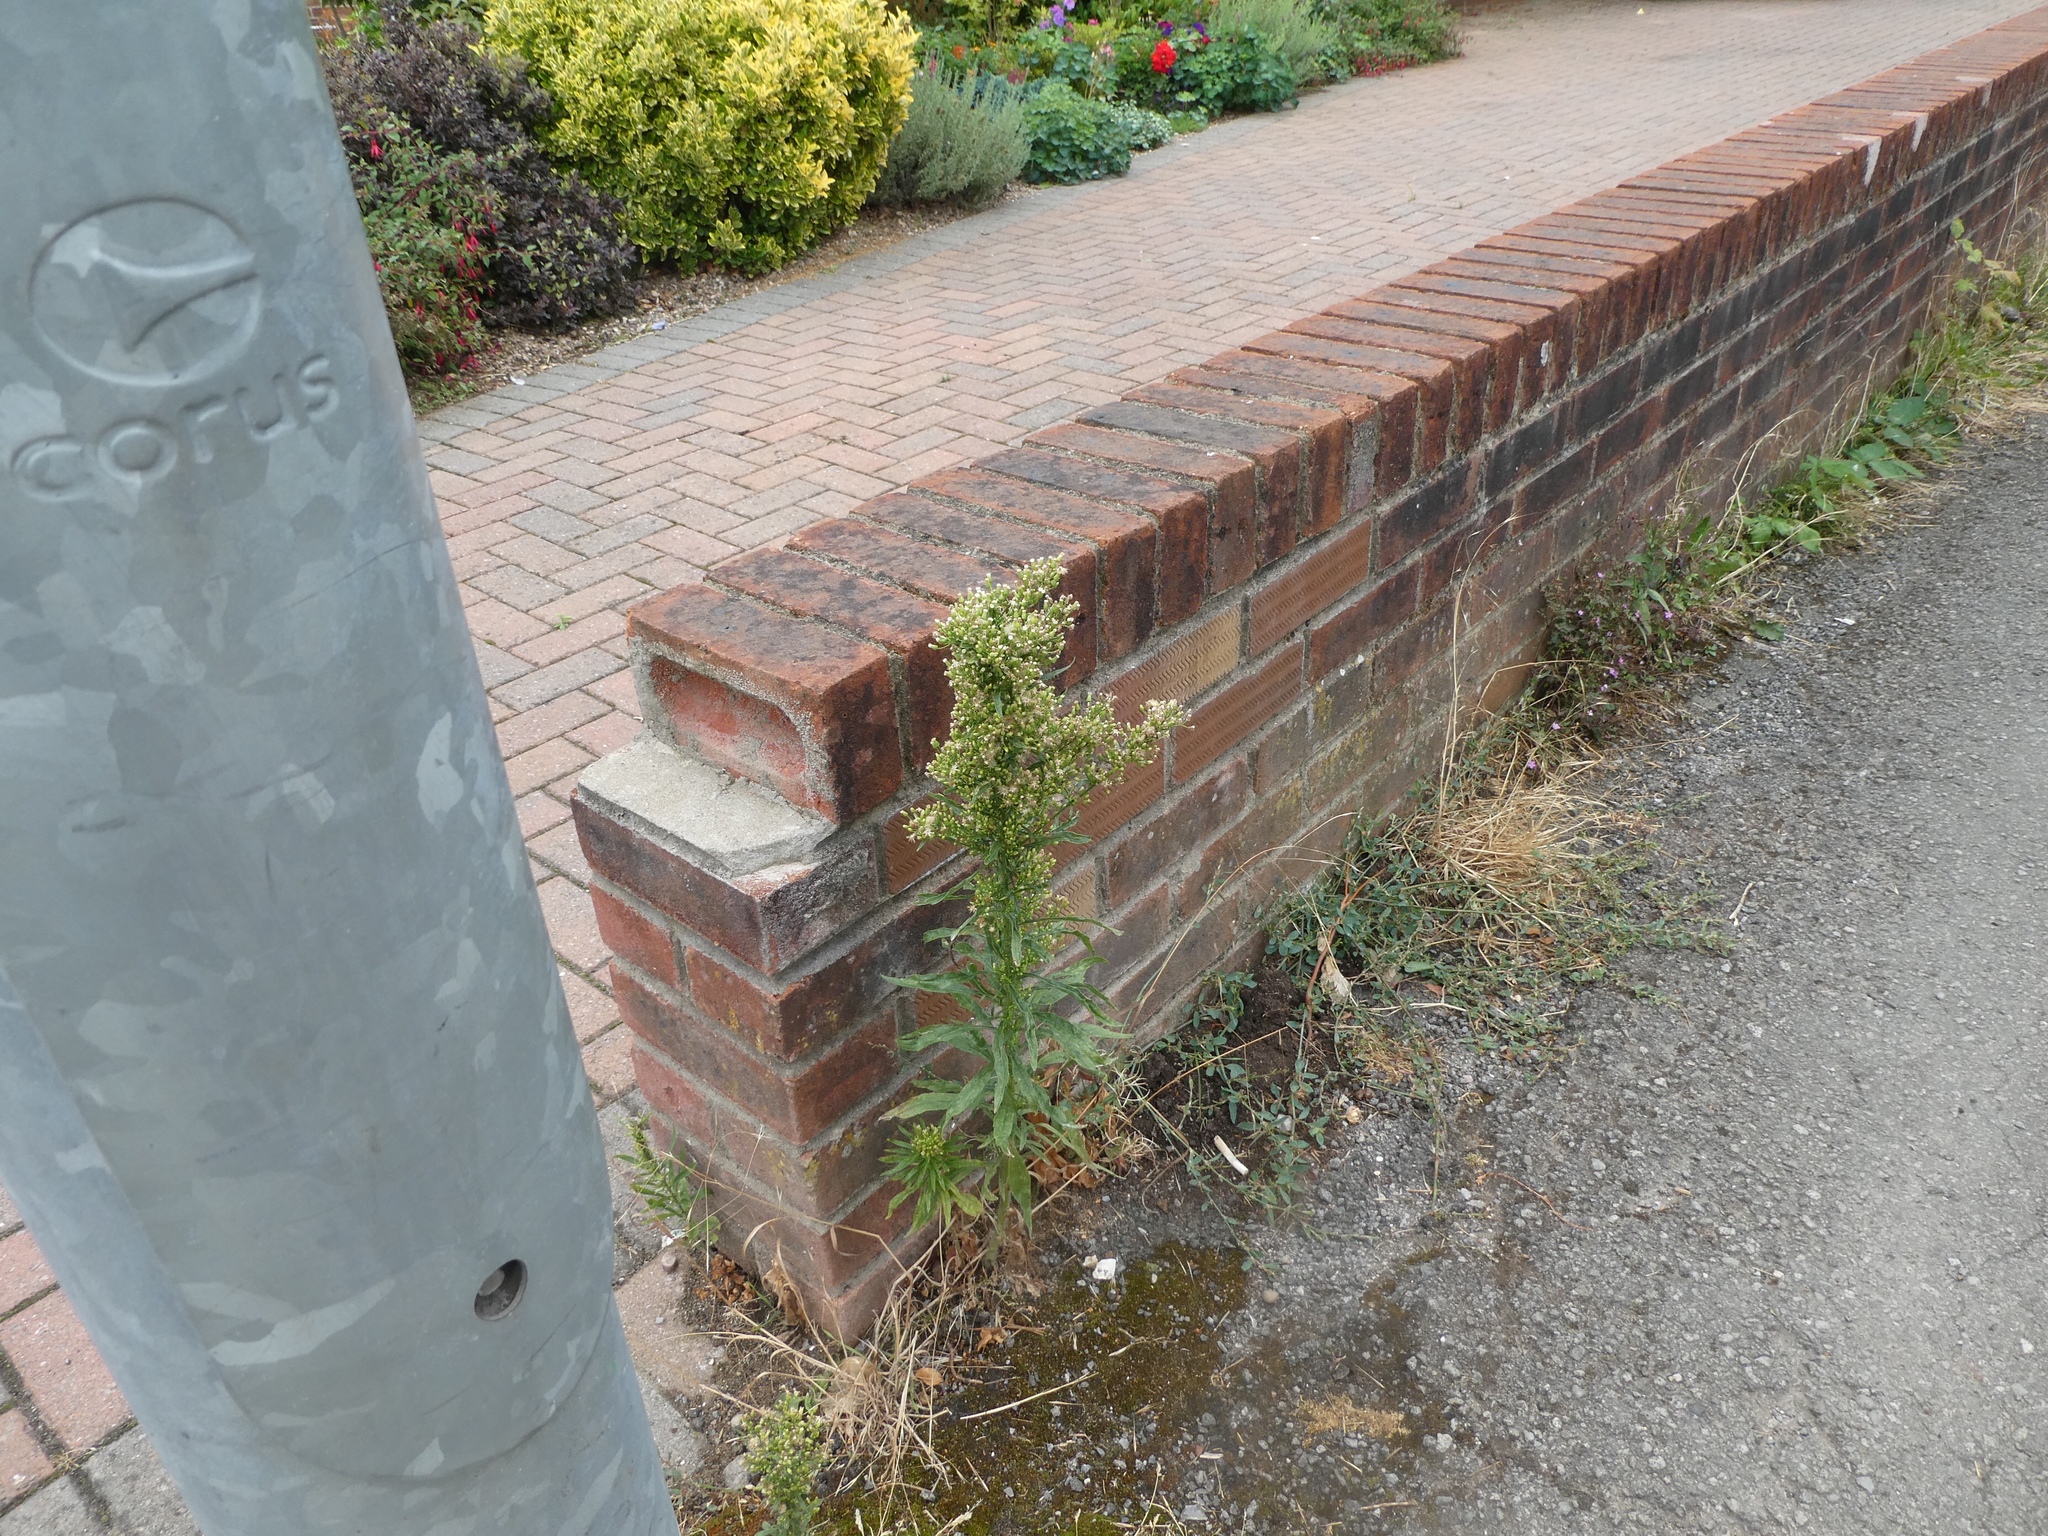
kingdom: Plantae
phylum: Tracheophyta
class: Magnoliopsida
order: Asterales
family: Asteraceae
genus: Erigeron
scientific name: Erigeron canadensis
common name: Canadian fleabane
